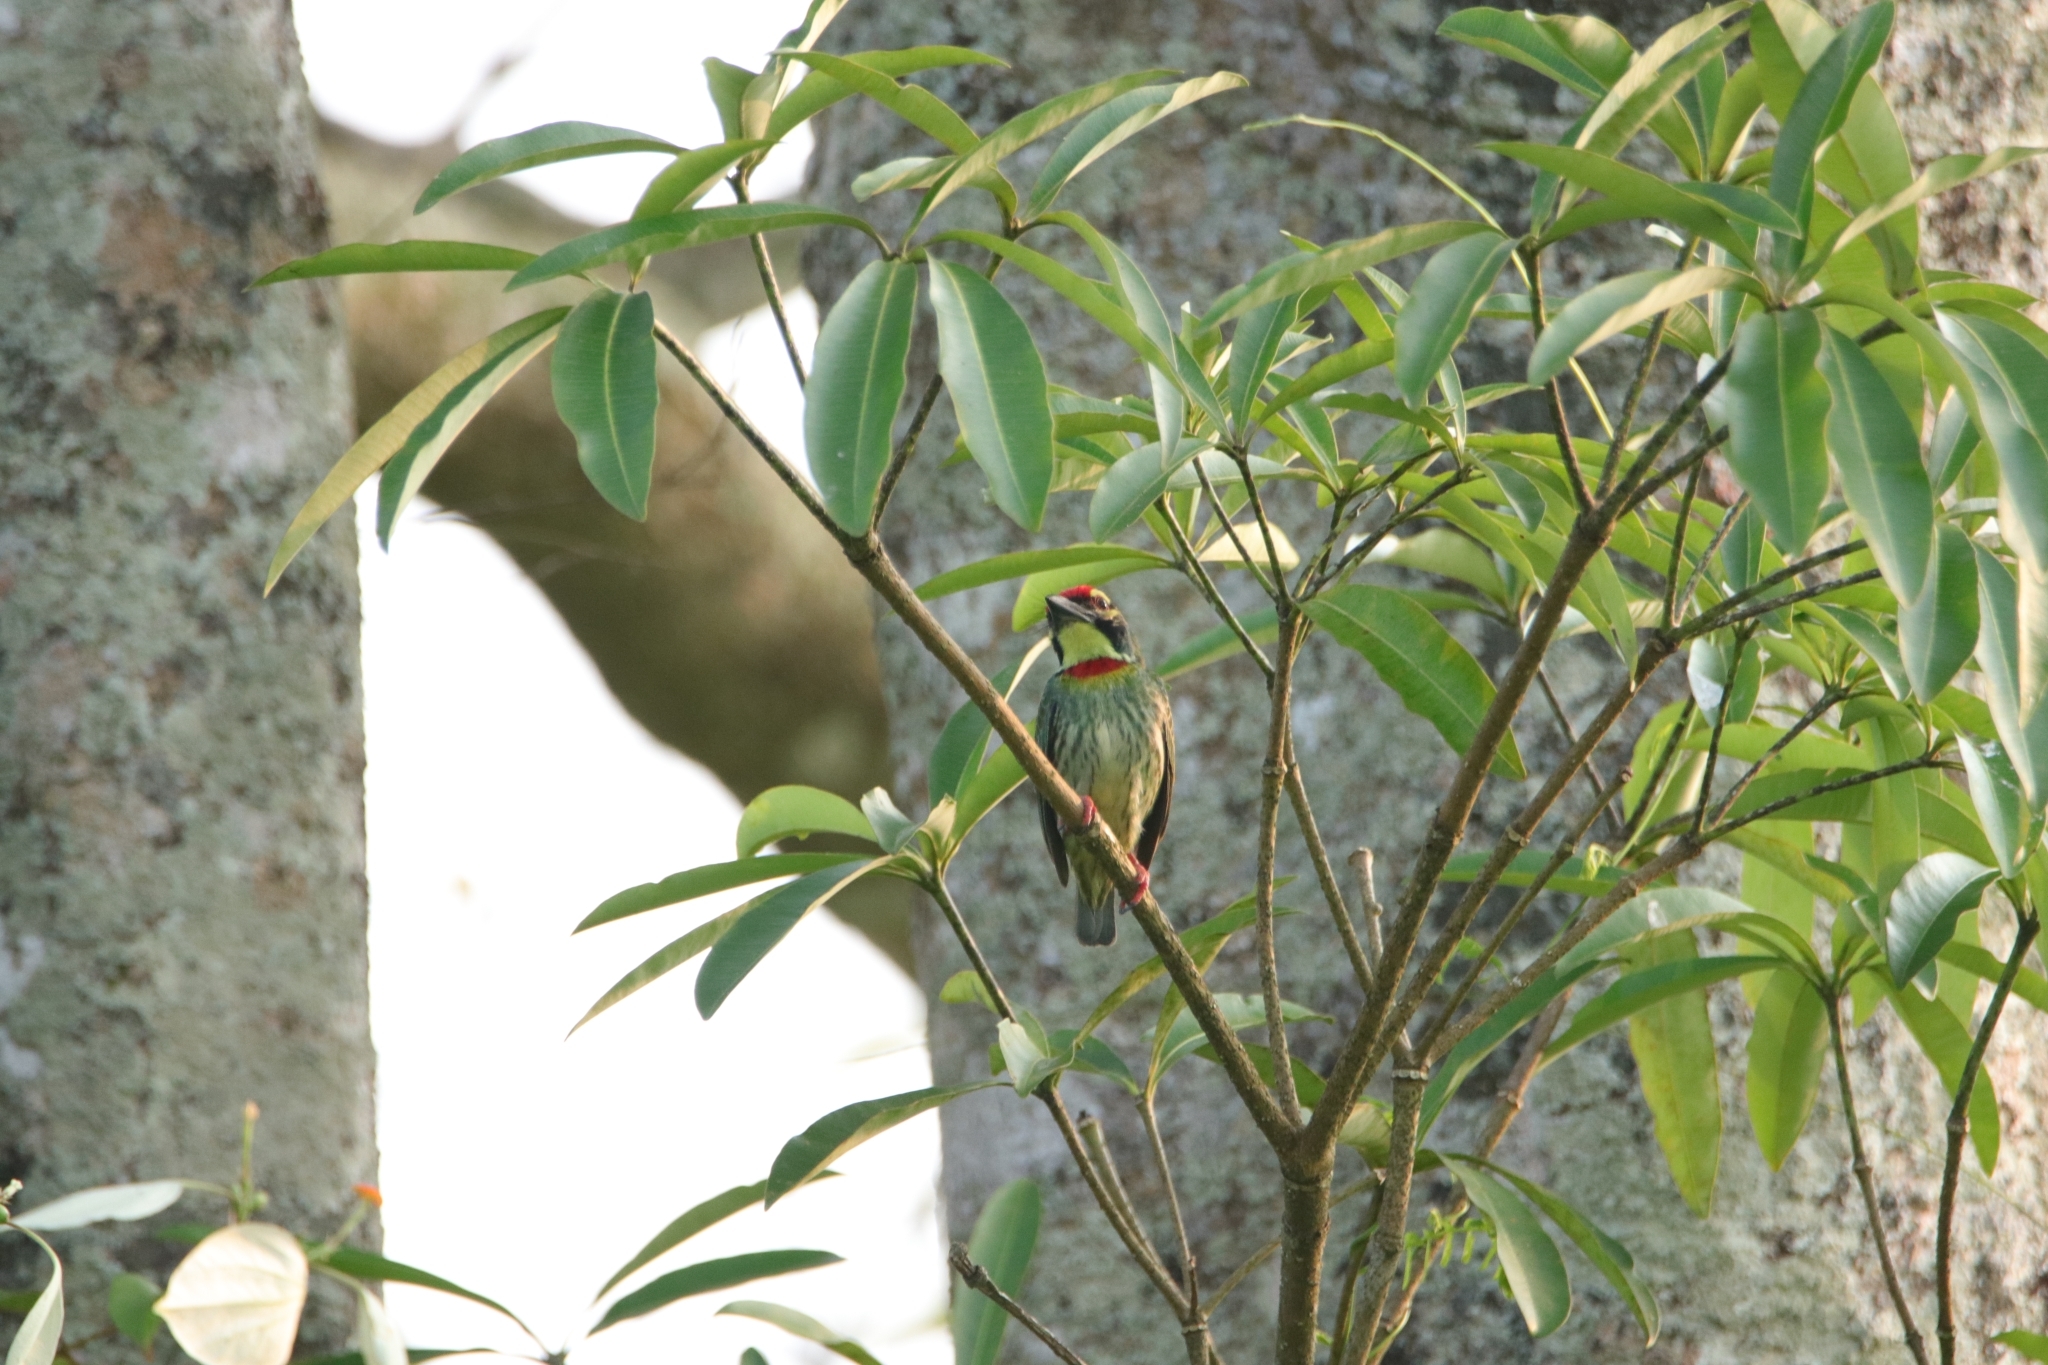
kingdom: Animalia
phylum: Chordata
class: Aves
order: Piciformes
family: Megalaimidae
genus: Psilopogon
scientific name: Psilopogon haemacephalus
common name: Coppersmith barbet
